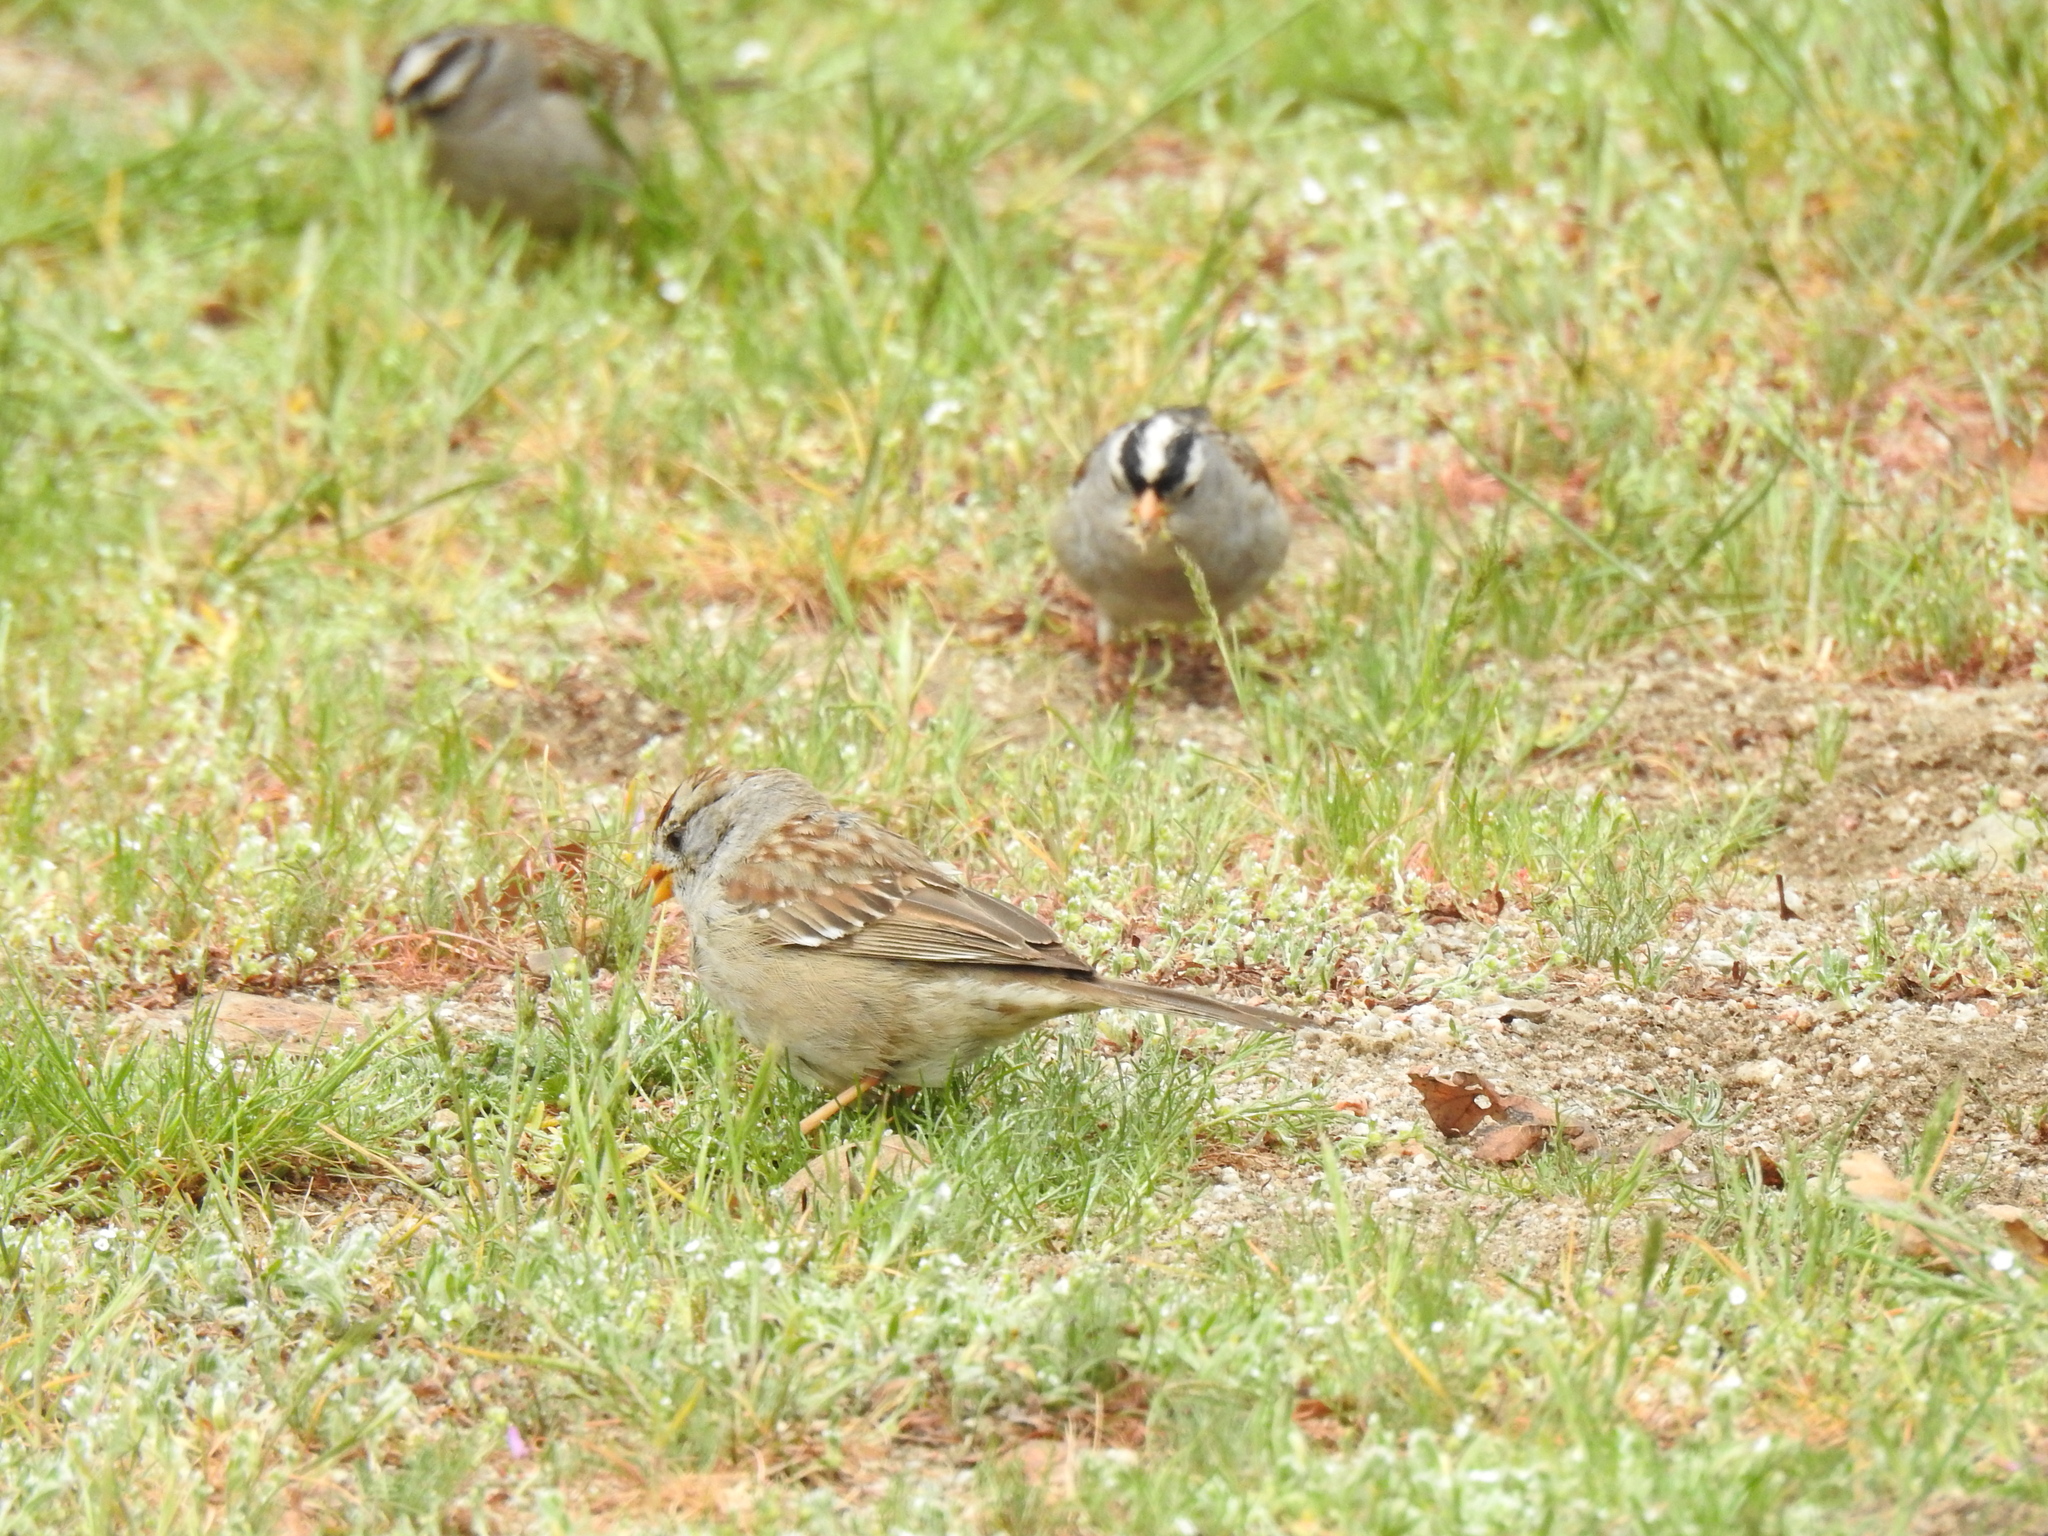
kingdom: Animalia
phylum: Chordata
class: Aves
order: Passeriformes
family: Passerellidae
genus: Zonotrichia
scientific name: Zonotrichia leucophrys
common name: White-crowned sparrow
